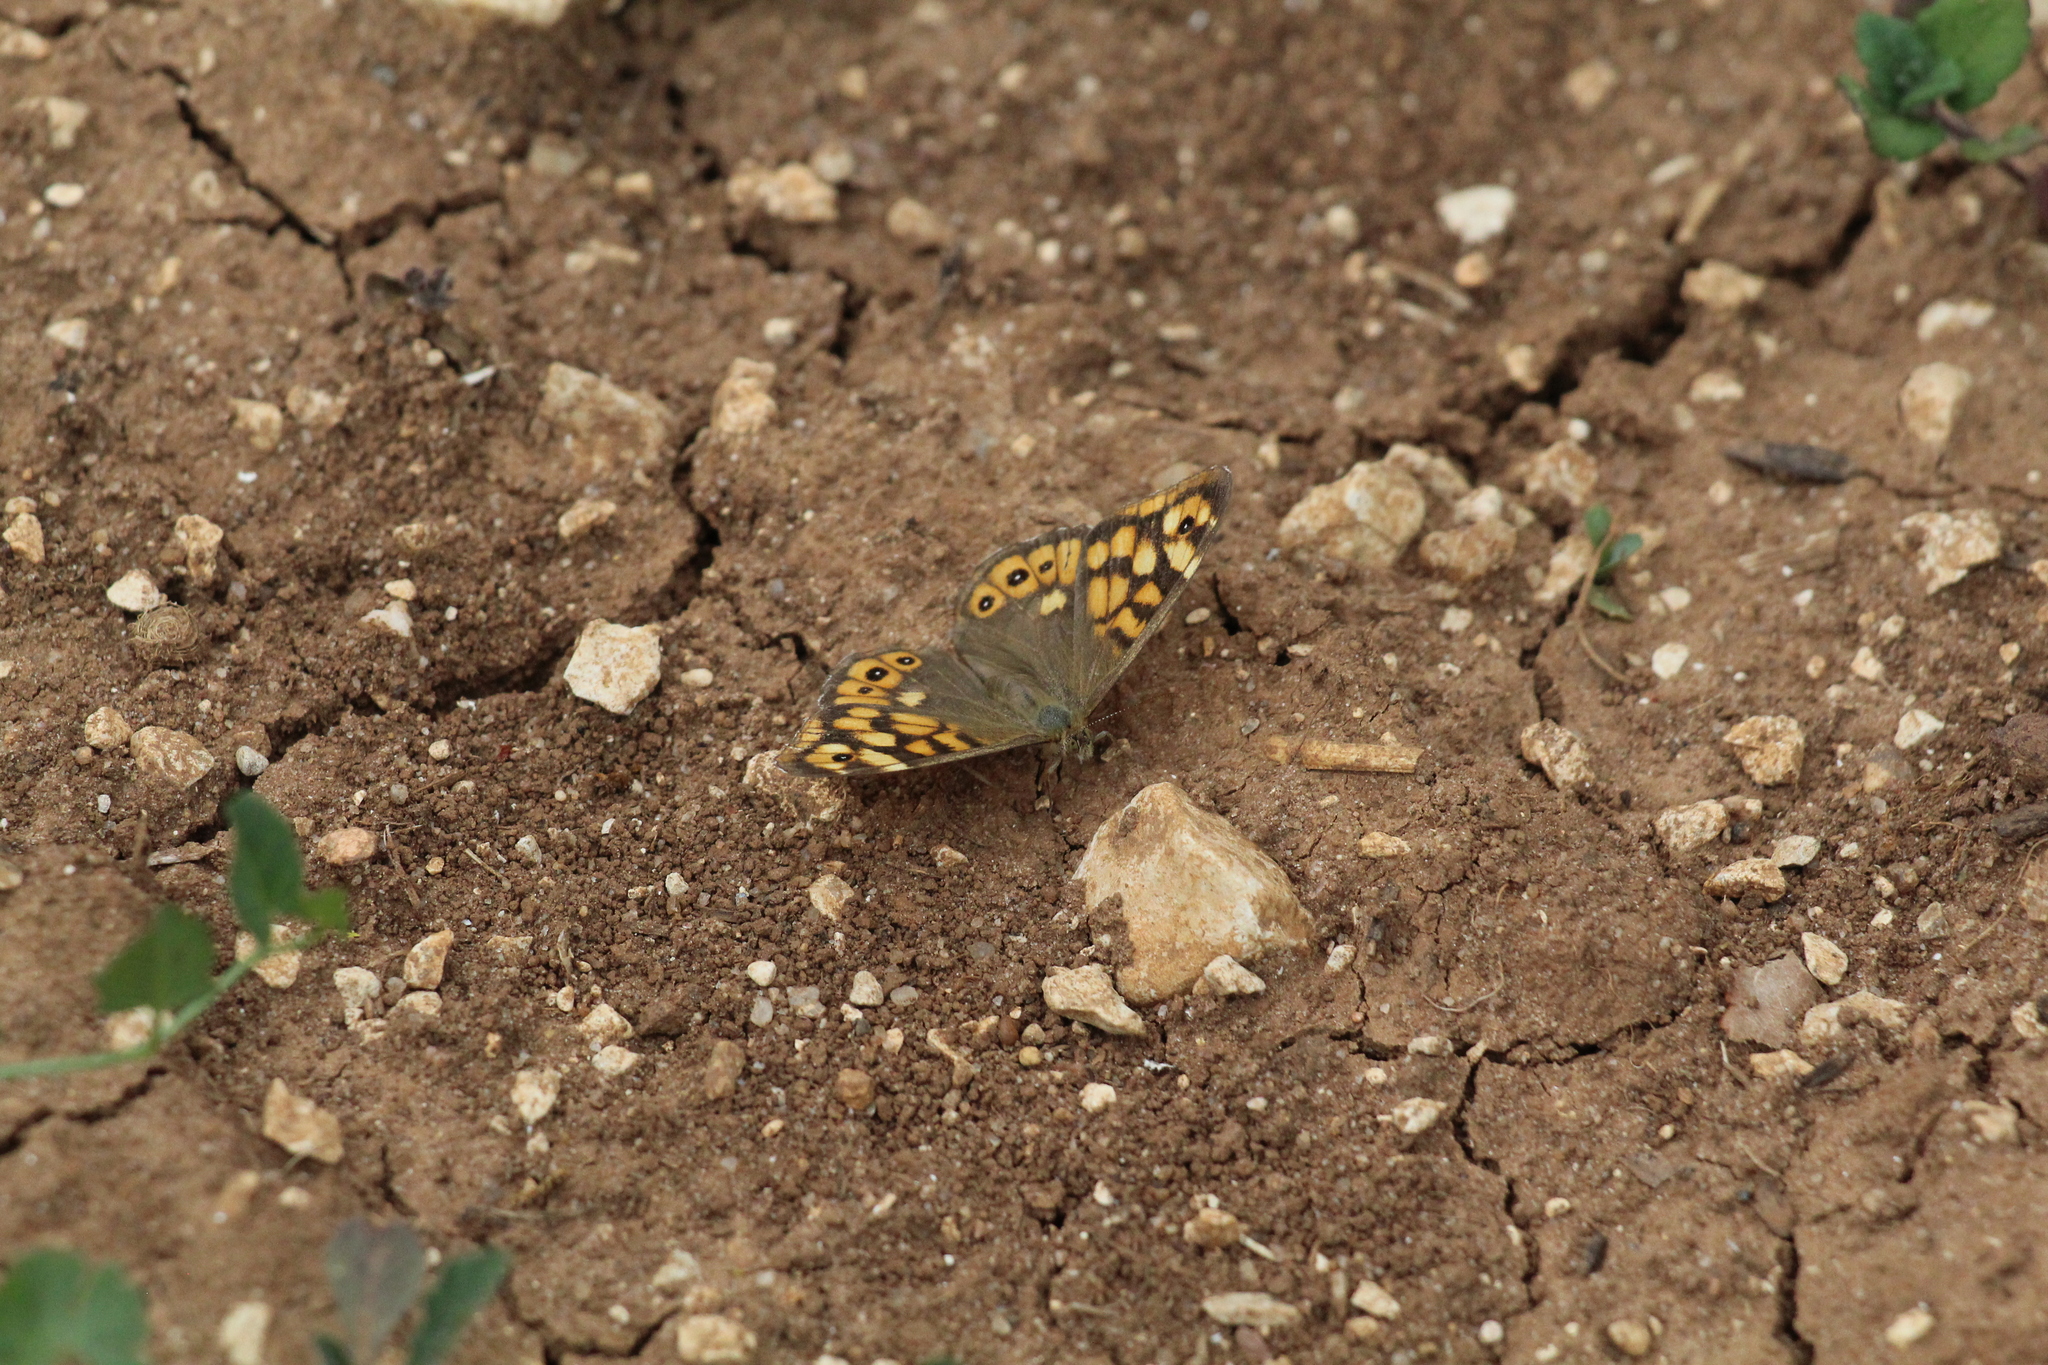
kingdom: Animalia
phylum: Arthropoda
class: Insecta
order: Lepidoptera
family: Nymphalidae
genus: Pararge
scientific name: Pararge aegeria
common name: Speckled wood
